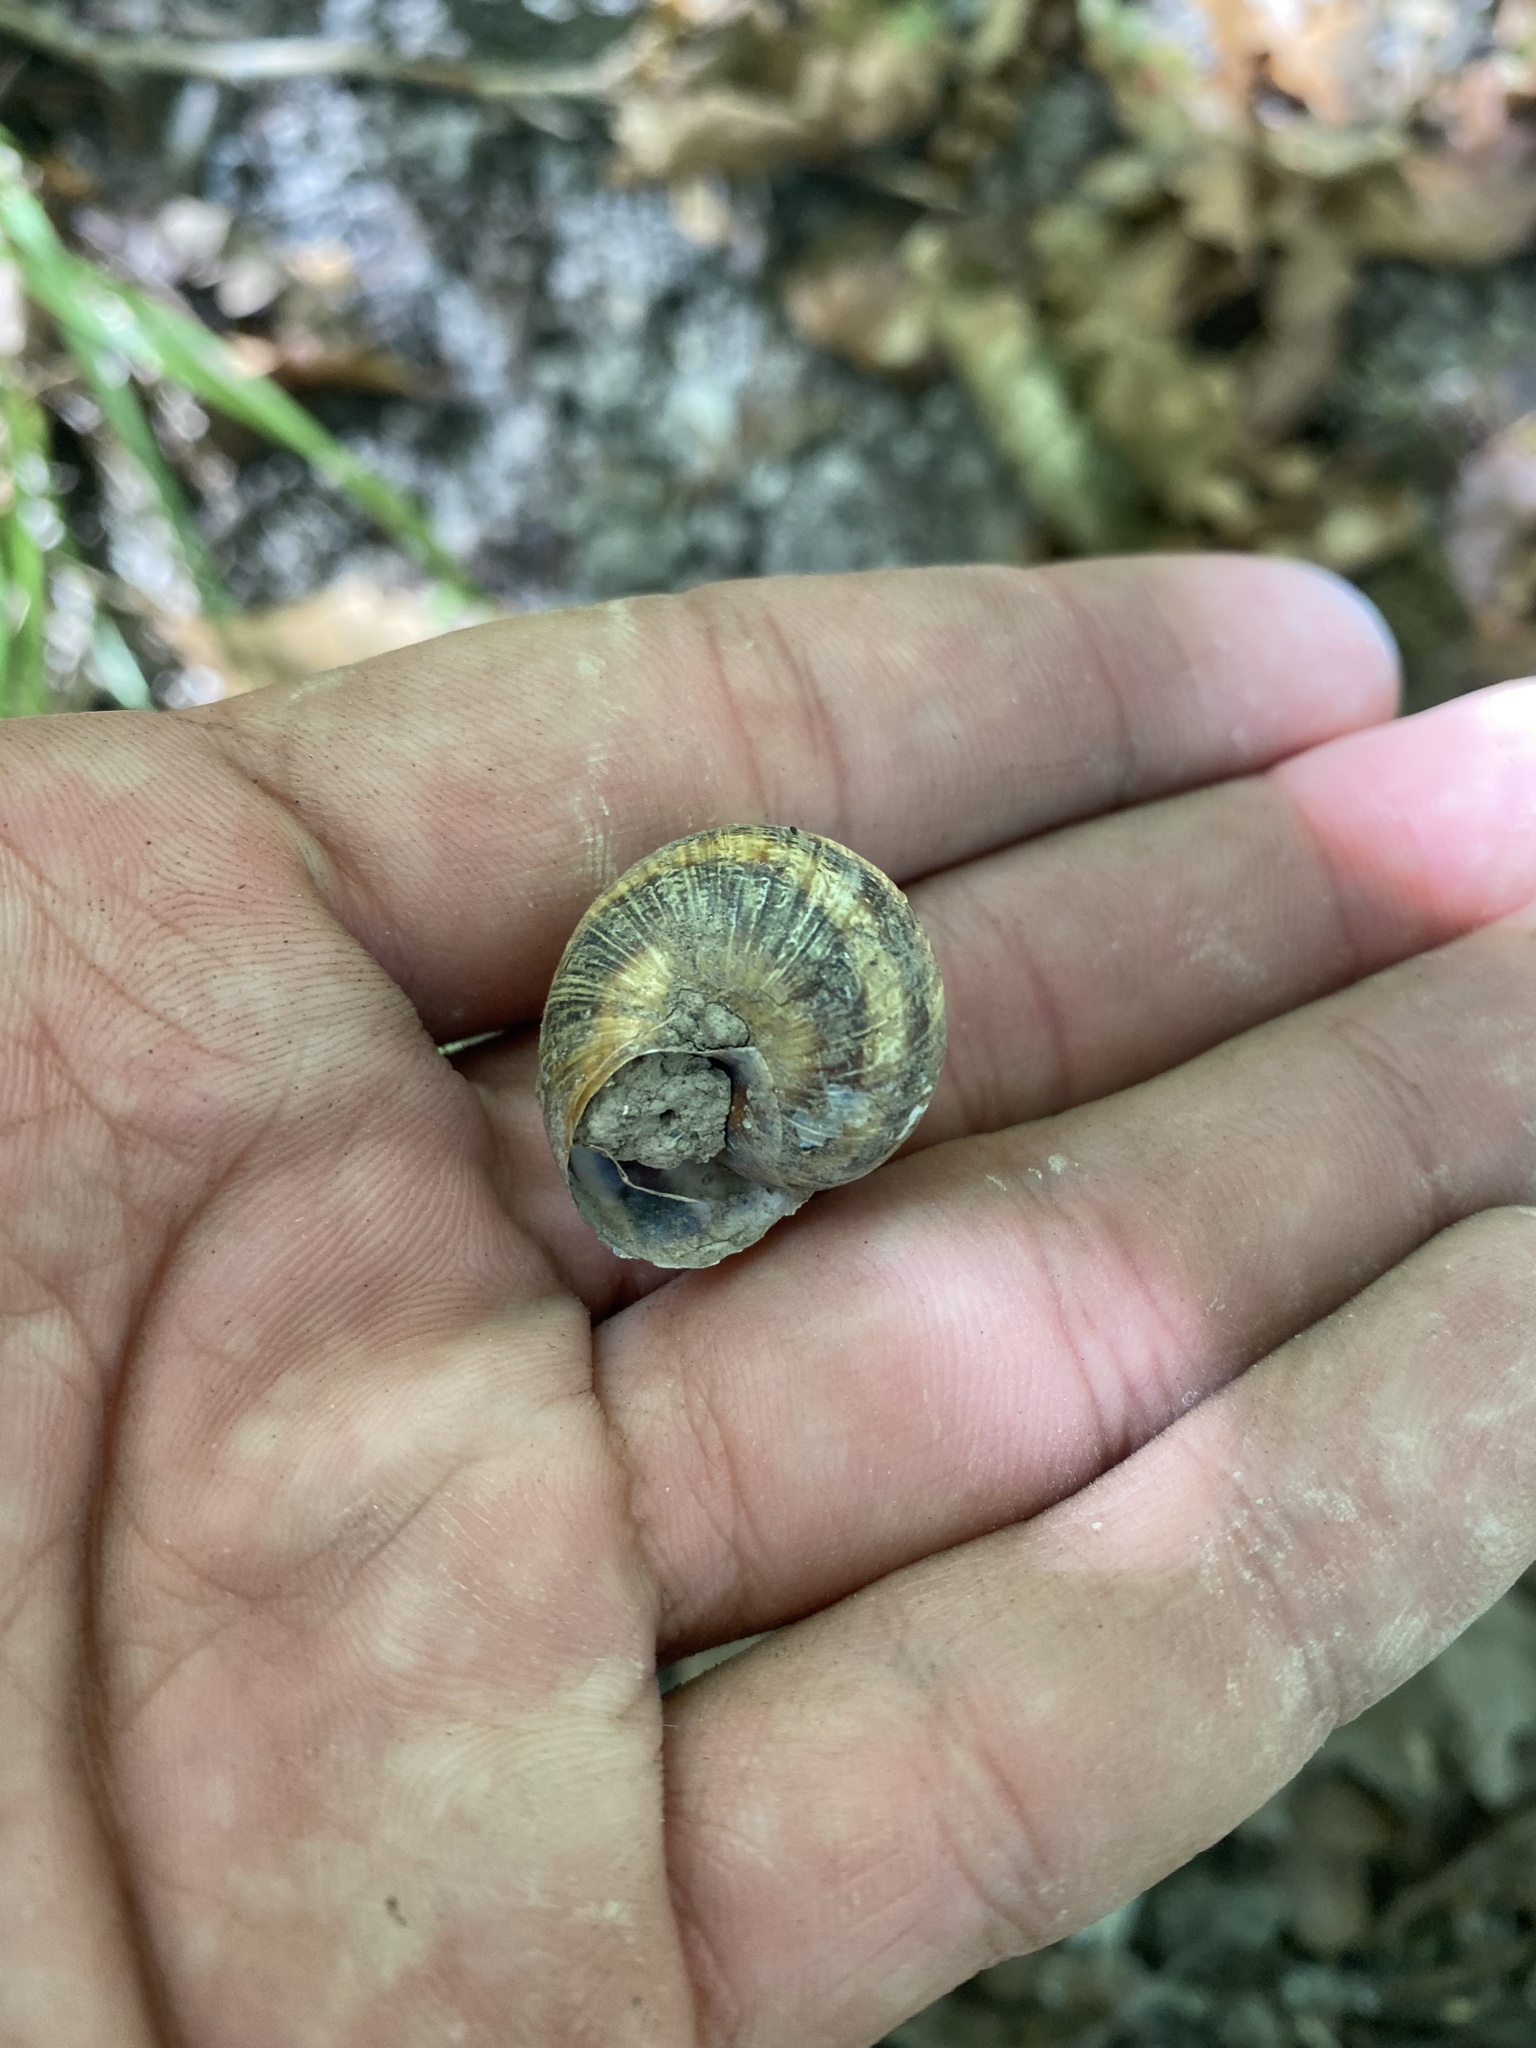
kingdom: Animalia
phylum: Mollusca
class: Gastropoda
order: Stylommatophora
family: Helicidae
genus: Caucasotachea
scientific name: Caucasotachea atrolabiata
